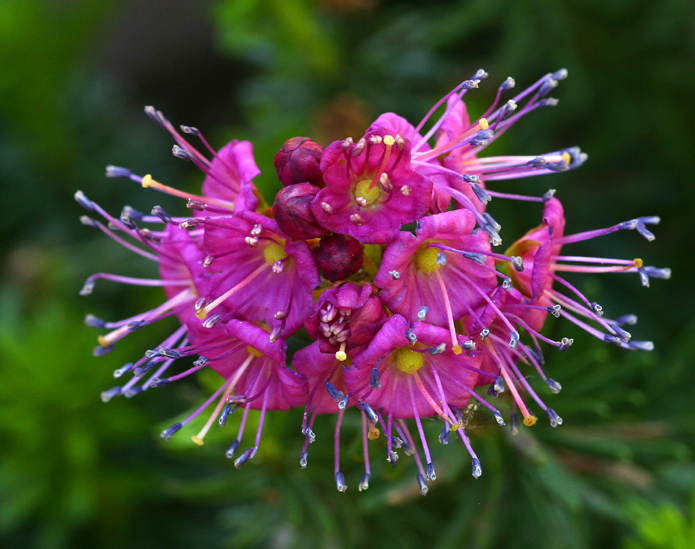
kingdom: Plantae
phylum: Tracheophyta
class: Magnoliopsida
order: Ericales
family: Ericaceae
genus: Phyllodoce
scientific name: Phyllodoce breweri
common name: Brewer's mountain-heather
